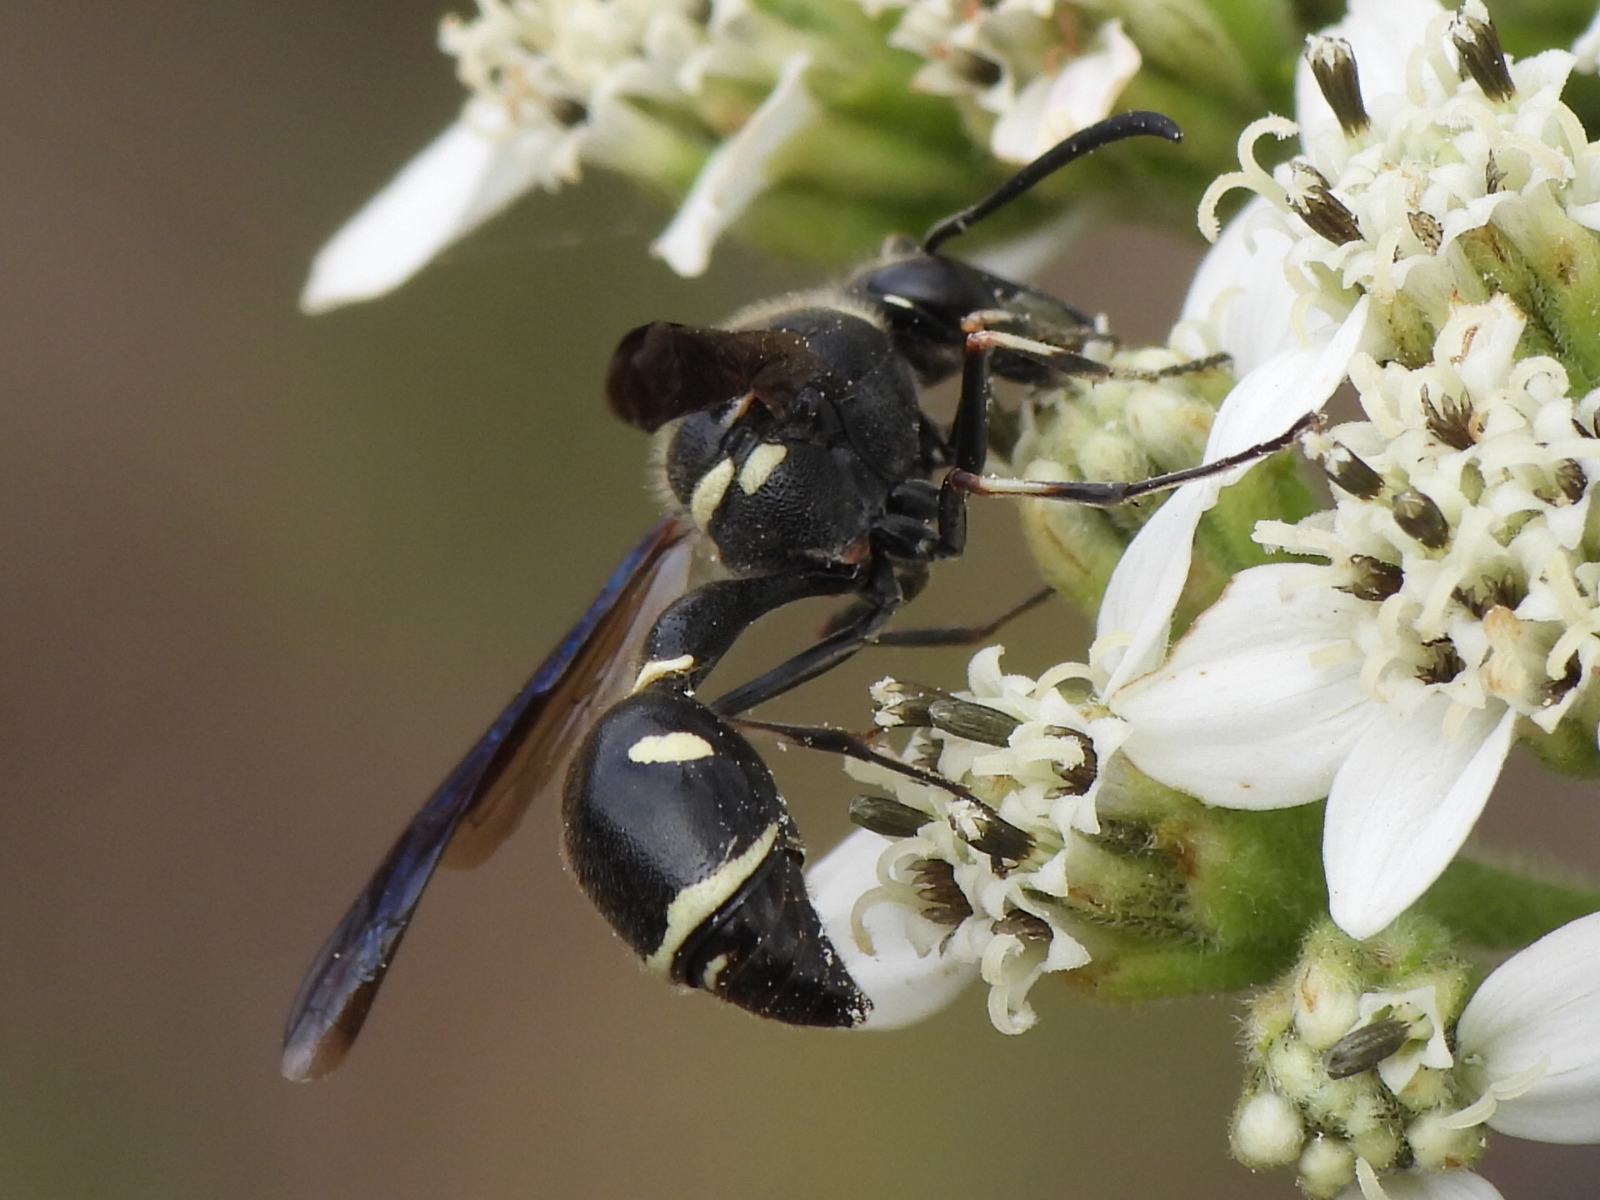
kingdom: Animalia
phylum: Arthropoda
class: Insecta
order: Hymenoptera
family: Vespidae
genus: Eumenes
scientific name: Eumenes fraternus
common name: Fraternal potter wasp
